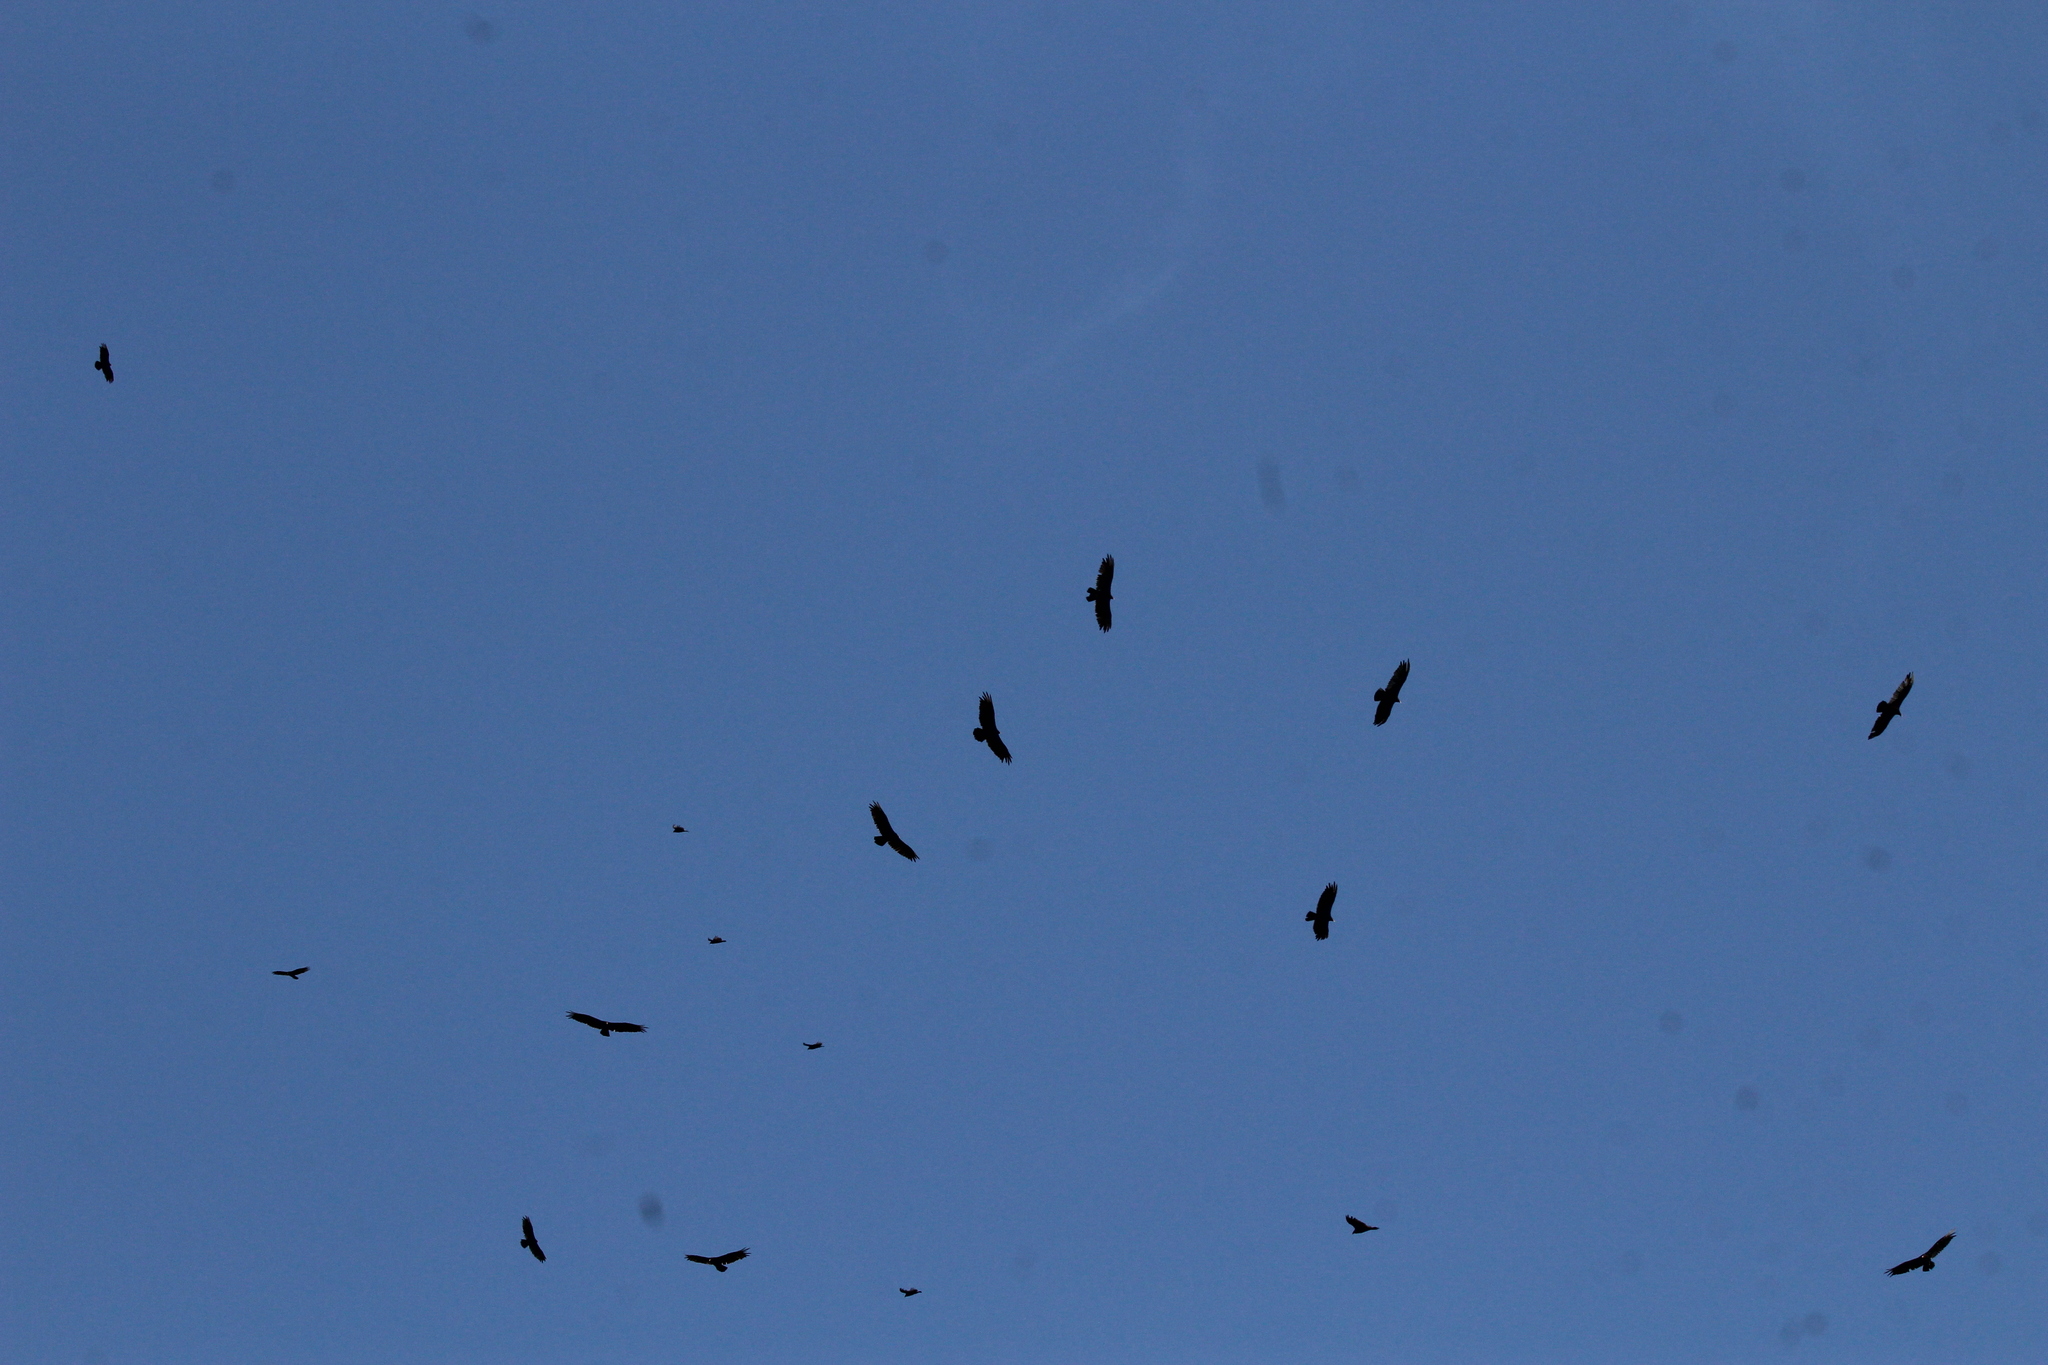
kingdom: Animalia
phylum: Chordata
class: Aves
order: Accipitriformes
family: Cathartidae
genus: Cathartes
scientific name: Cathartes aura
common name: Turkey vulture
